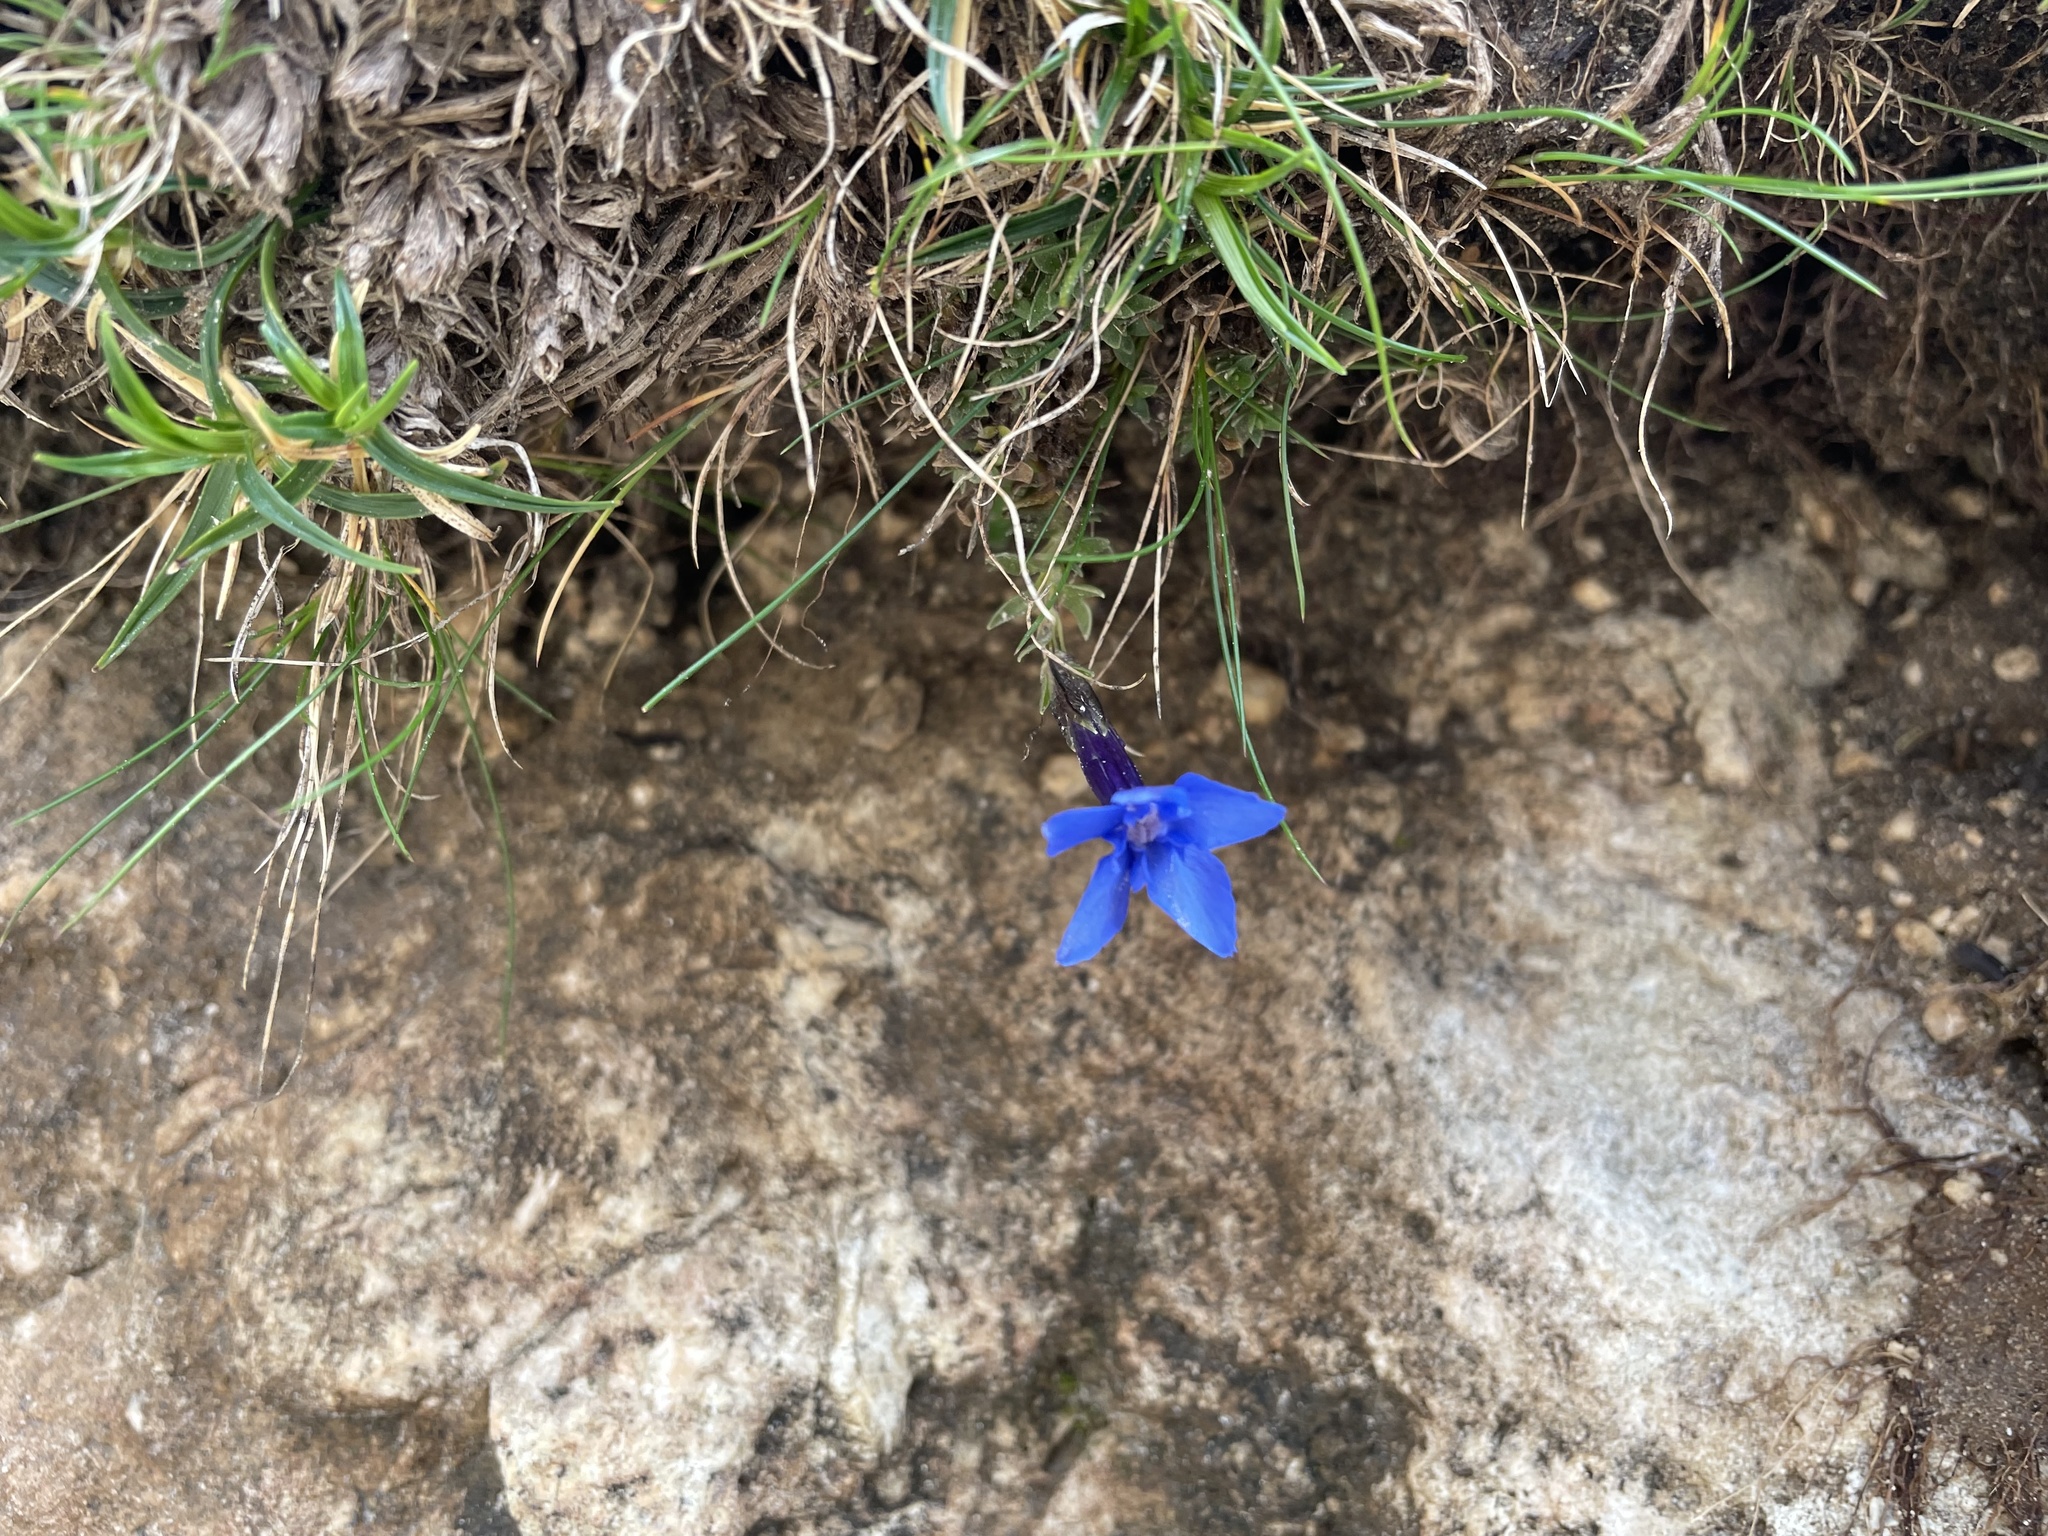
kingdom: Plantae
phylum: Tracheophyta
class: Magnoliopsida
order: Gentianales
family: Gentianaceae
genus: Gentiana
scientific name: Gentiana terglouensis
